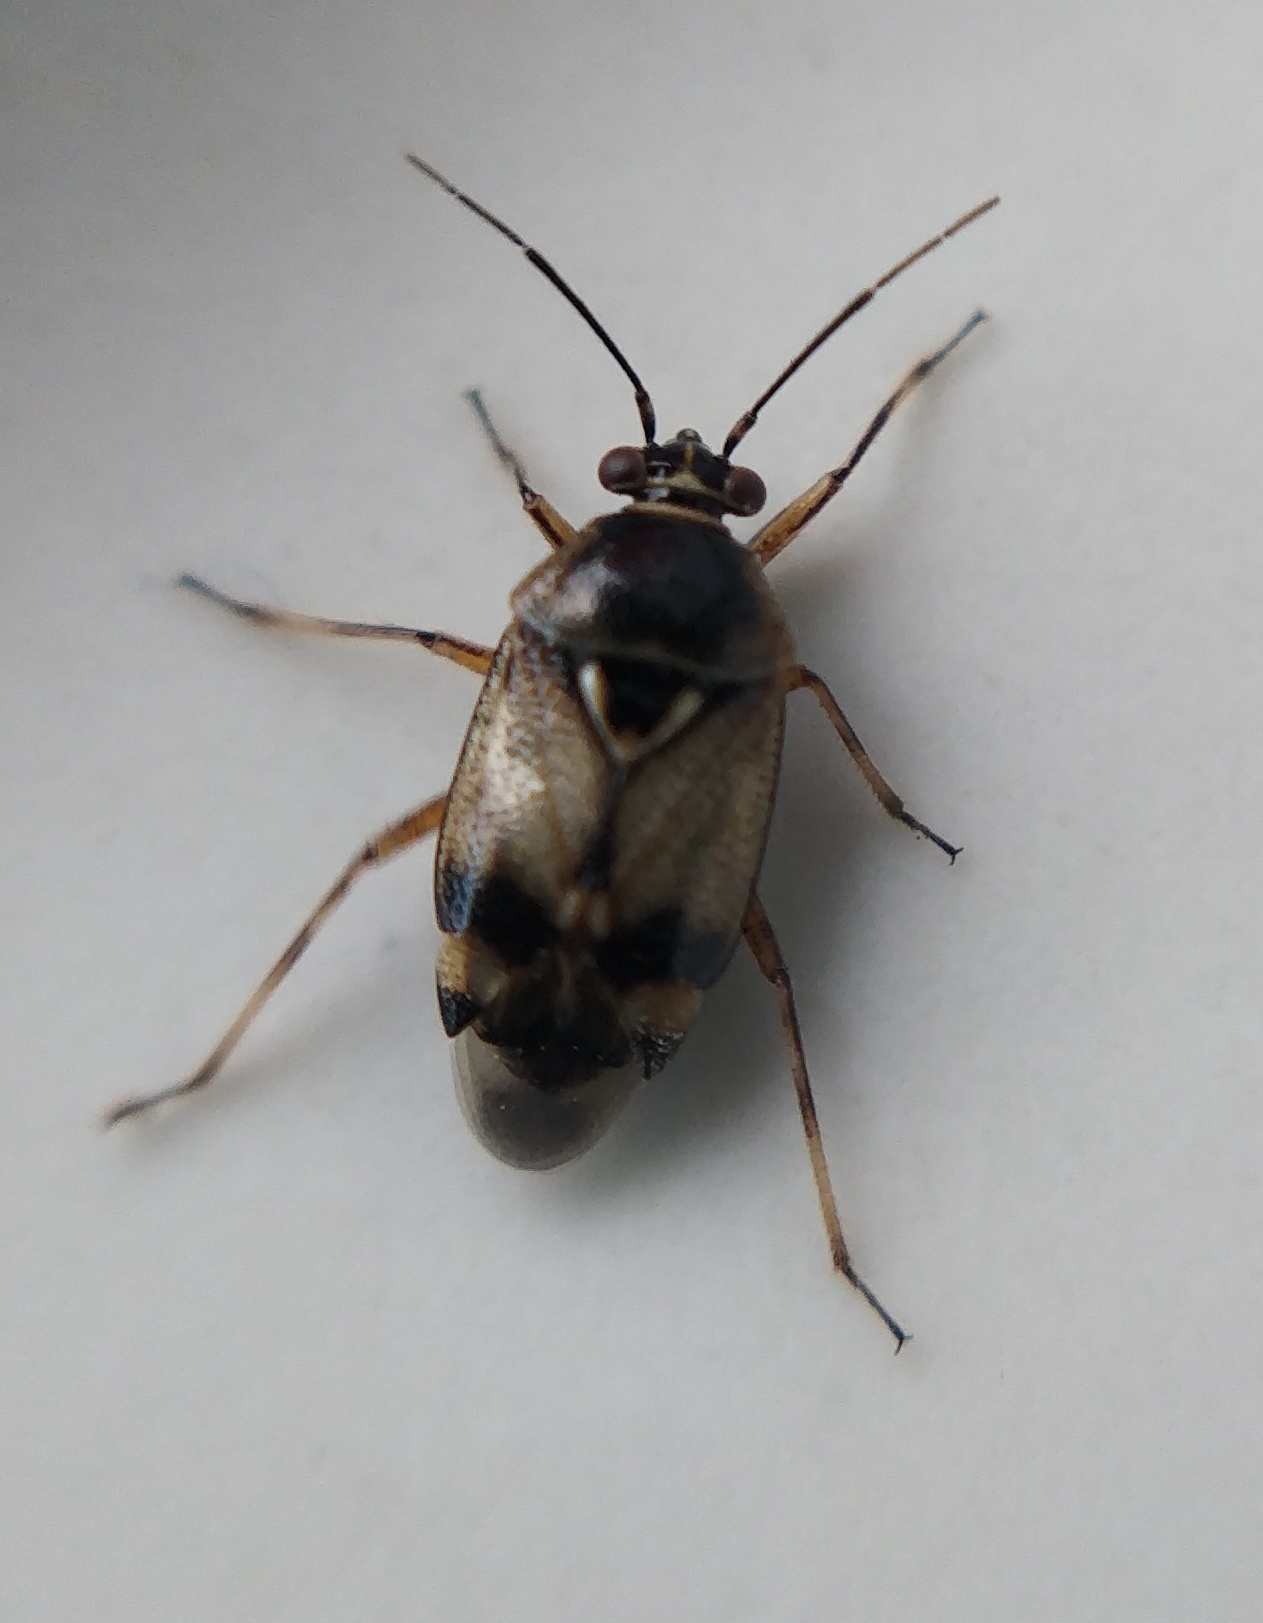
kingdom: Animalia
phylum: Arthropoda
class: Insecta
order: Hemiptera
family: Miridae
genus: Deraeocoris
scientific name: Deraeocoris serenus
